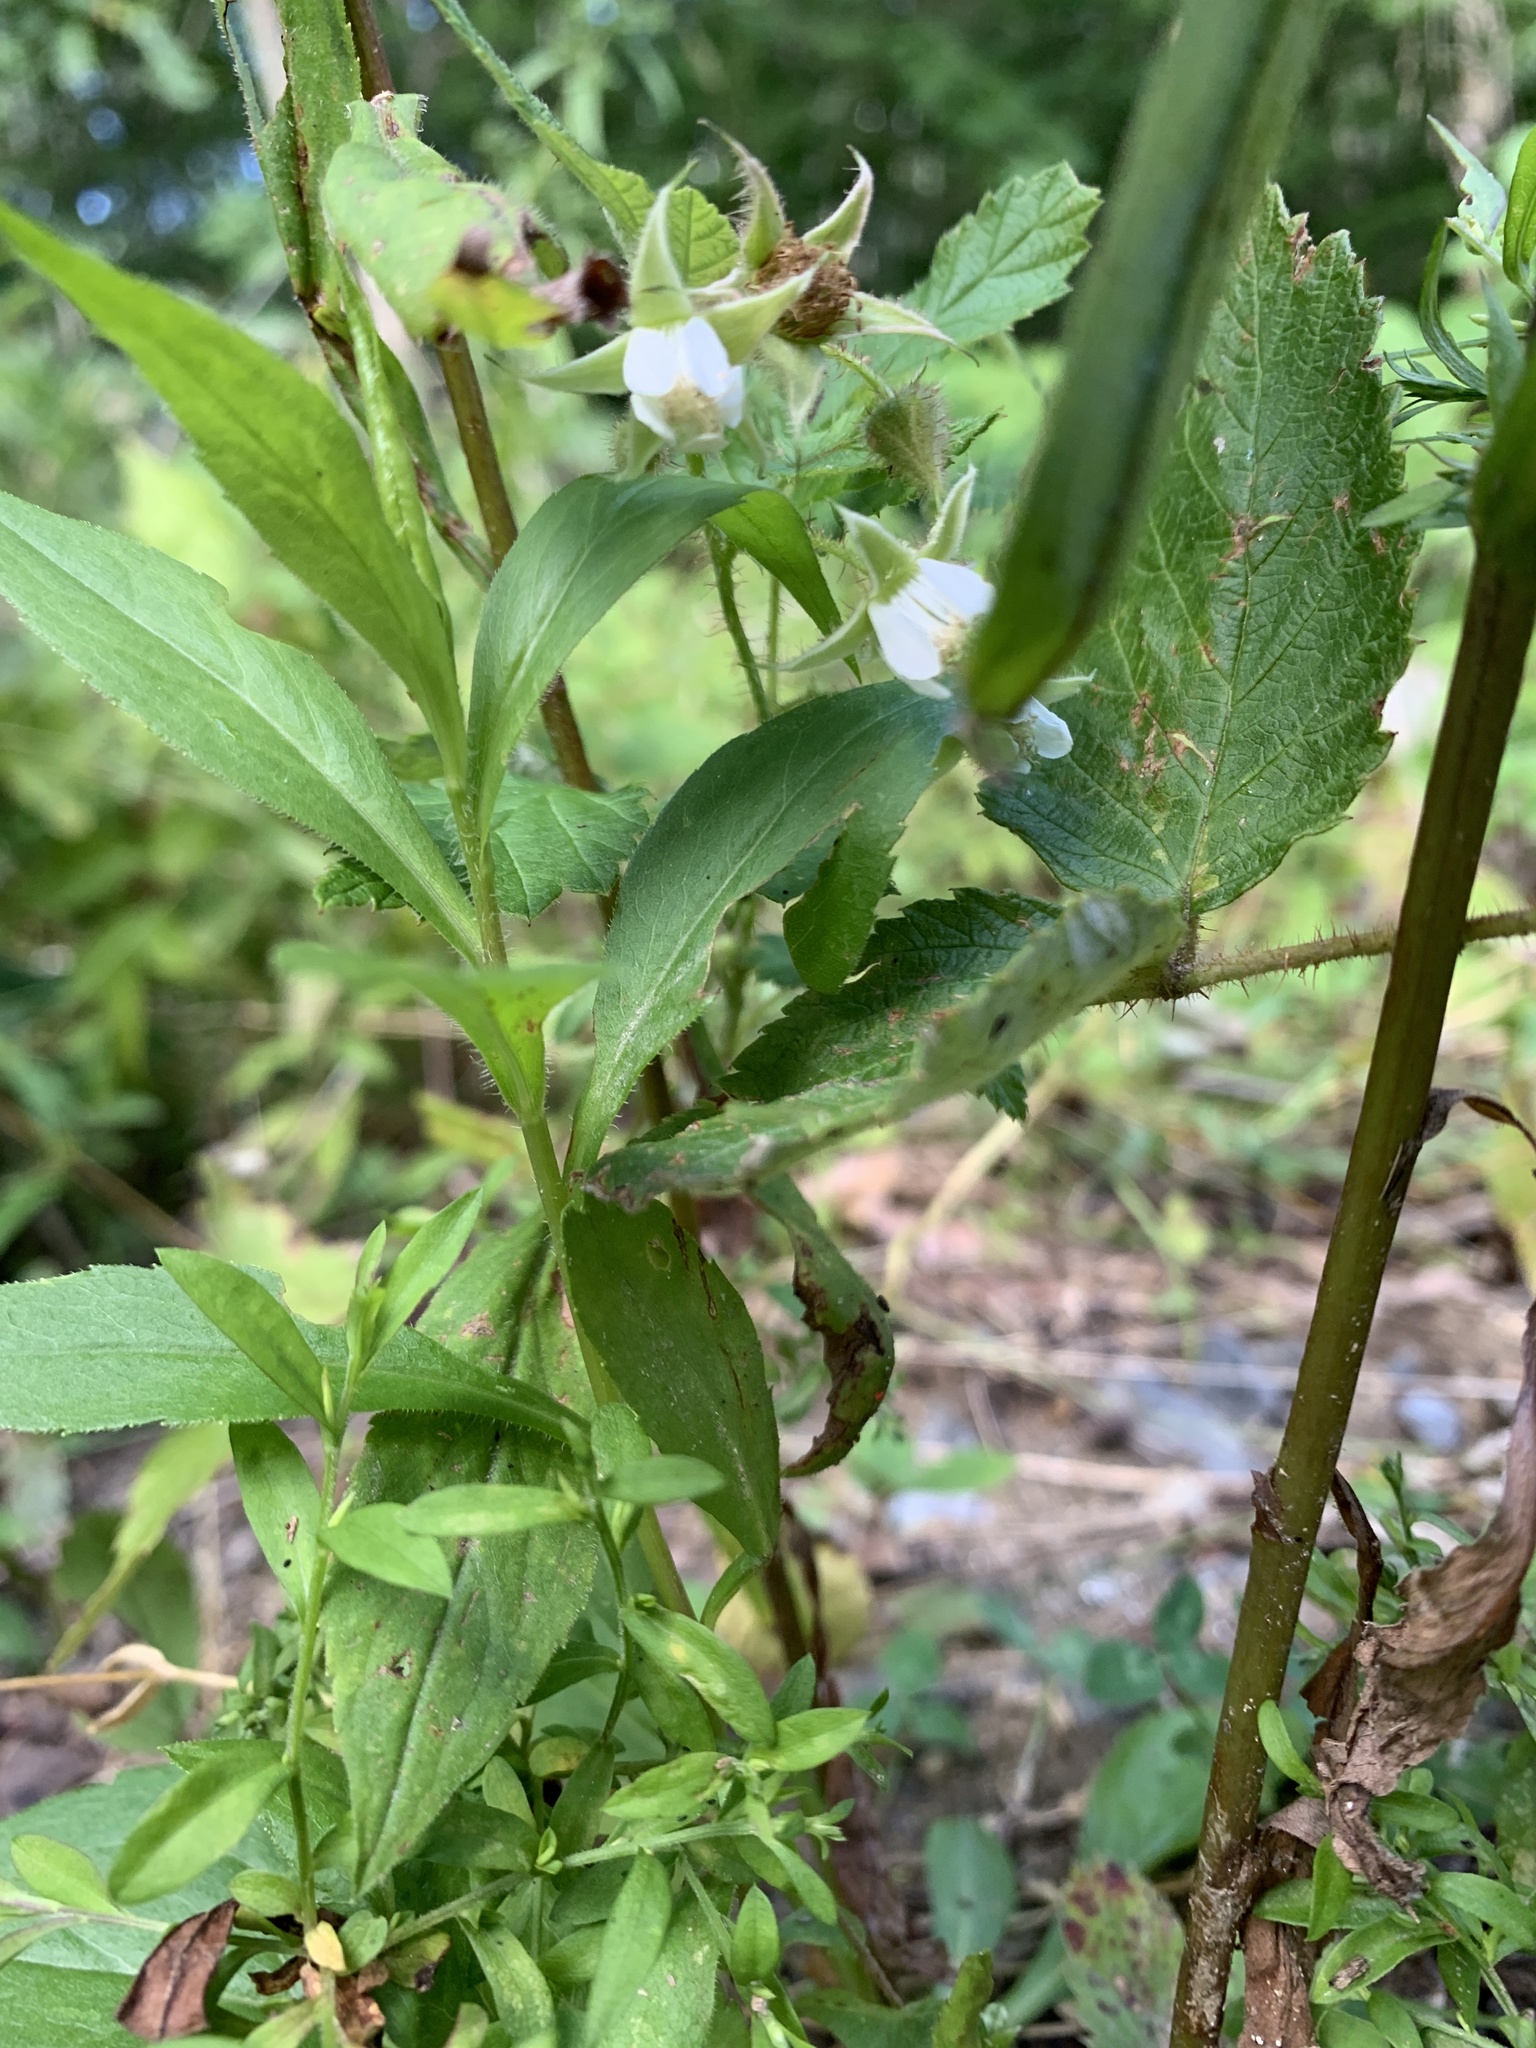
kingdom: Plantae
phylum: Tracheophyta
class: Magnoliopsida
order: Rosales
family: Rosaceae
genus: Rubus
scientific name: Rubus pubescens
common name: Dwarf raspberry
